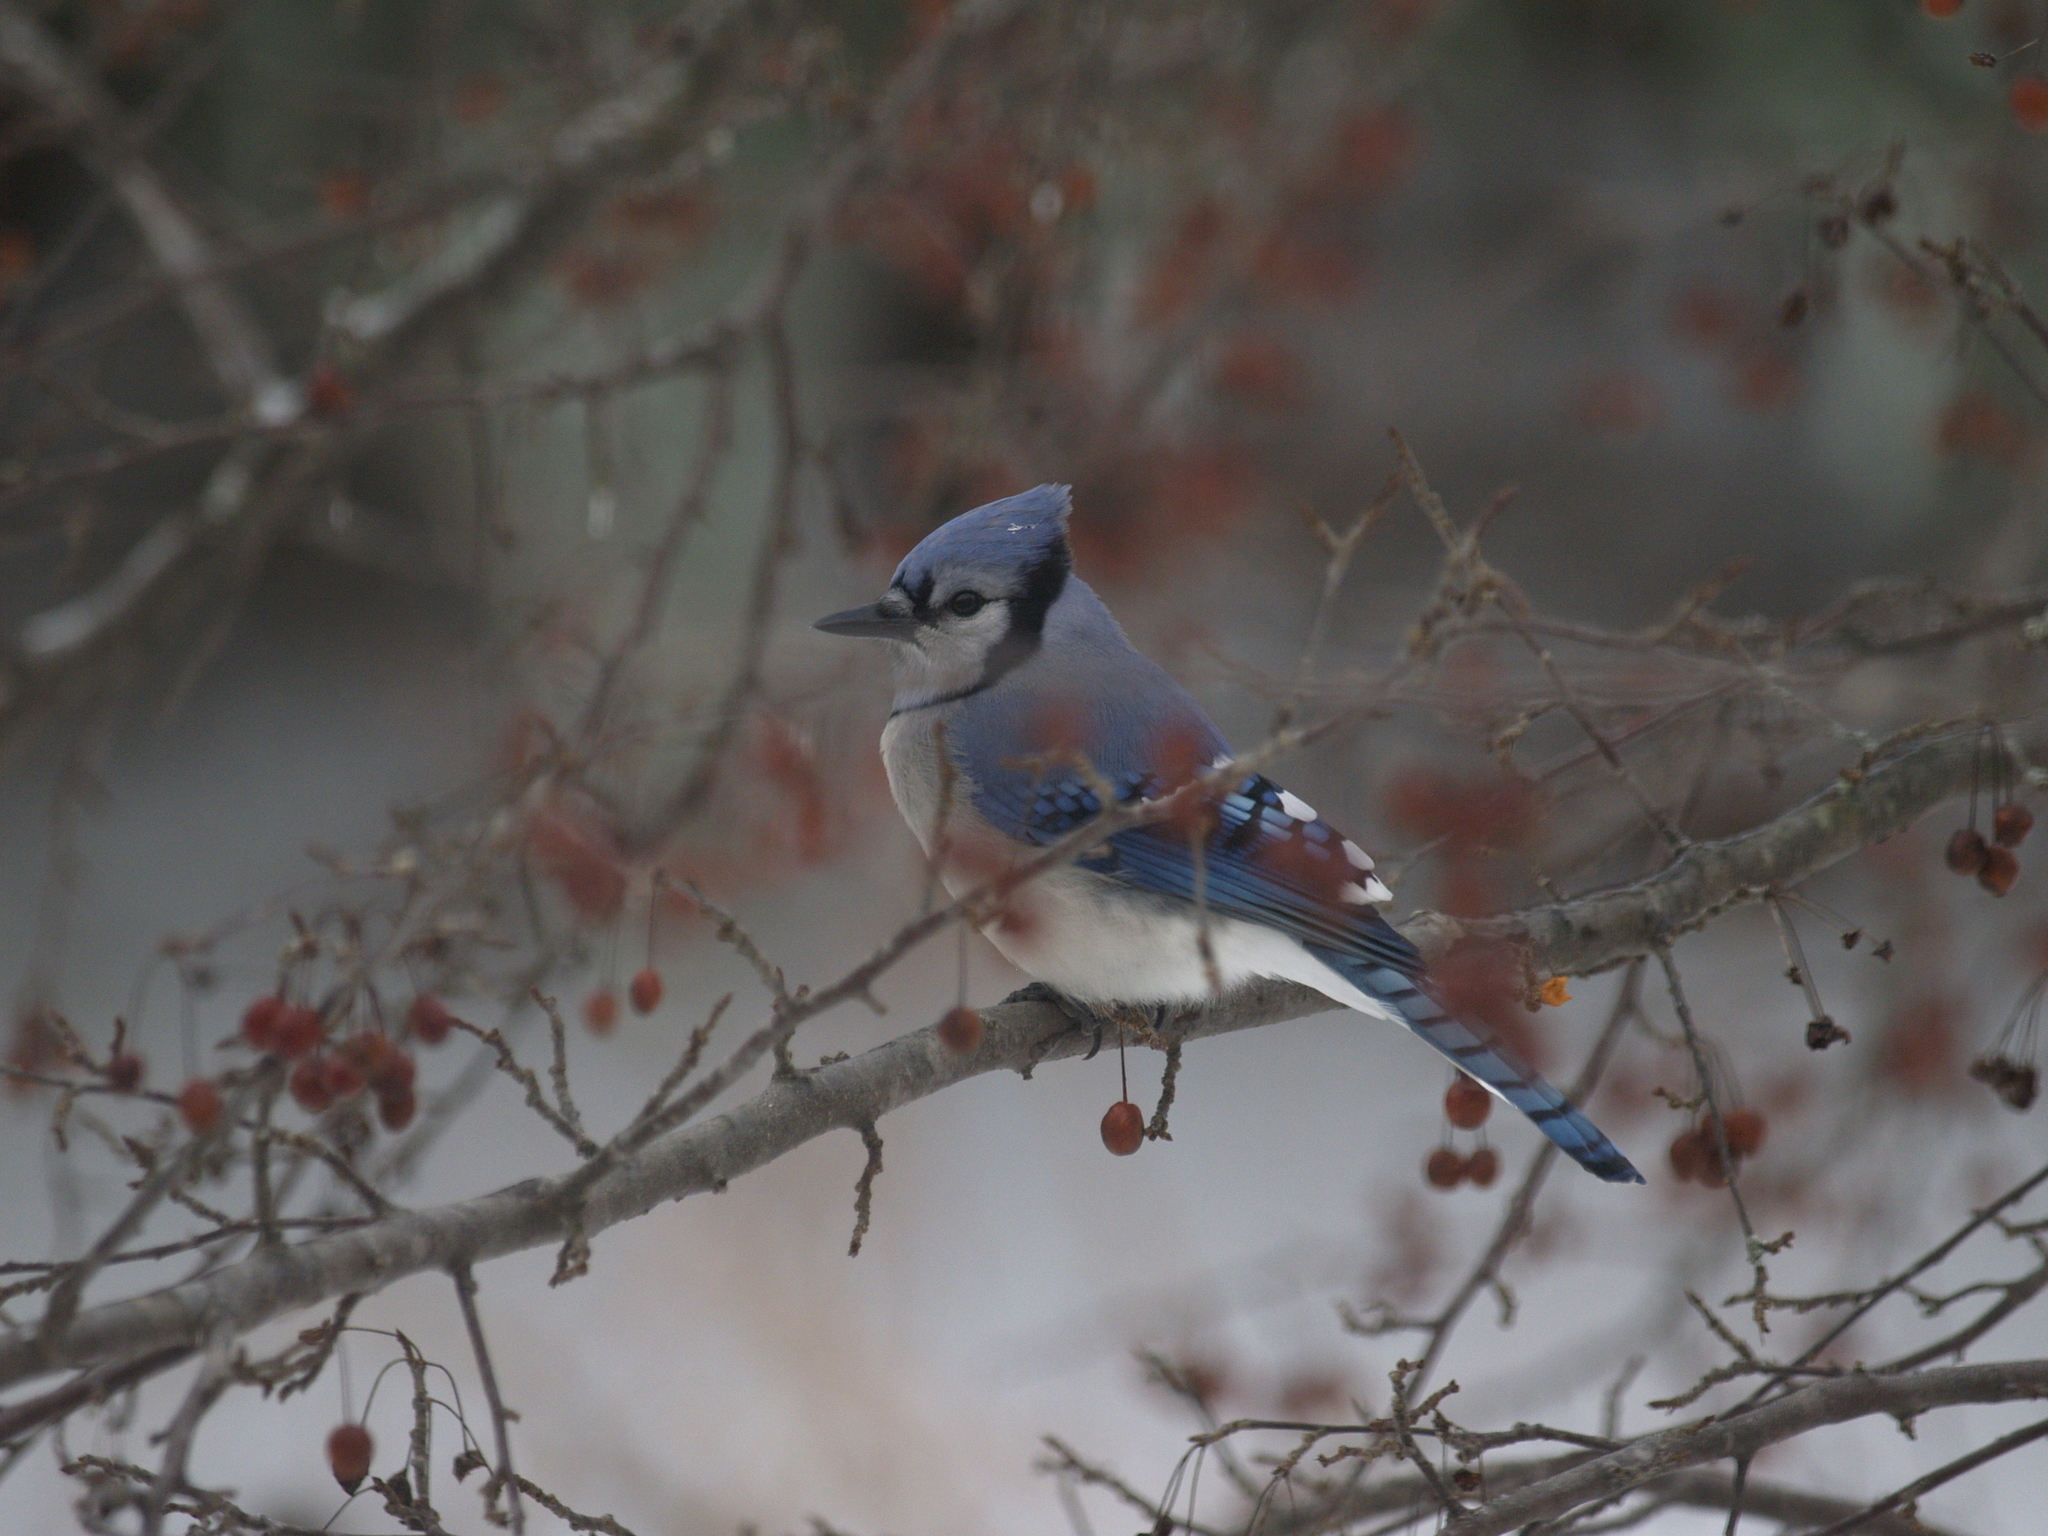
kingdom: Animalia
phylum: Chordata
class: Aves
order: Passeriformes
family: Corvidae
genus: Cyanocitta
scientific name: Cyanocitta cristata
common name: Blue jay
